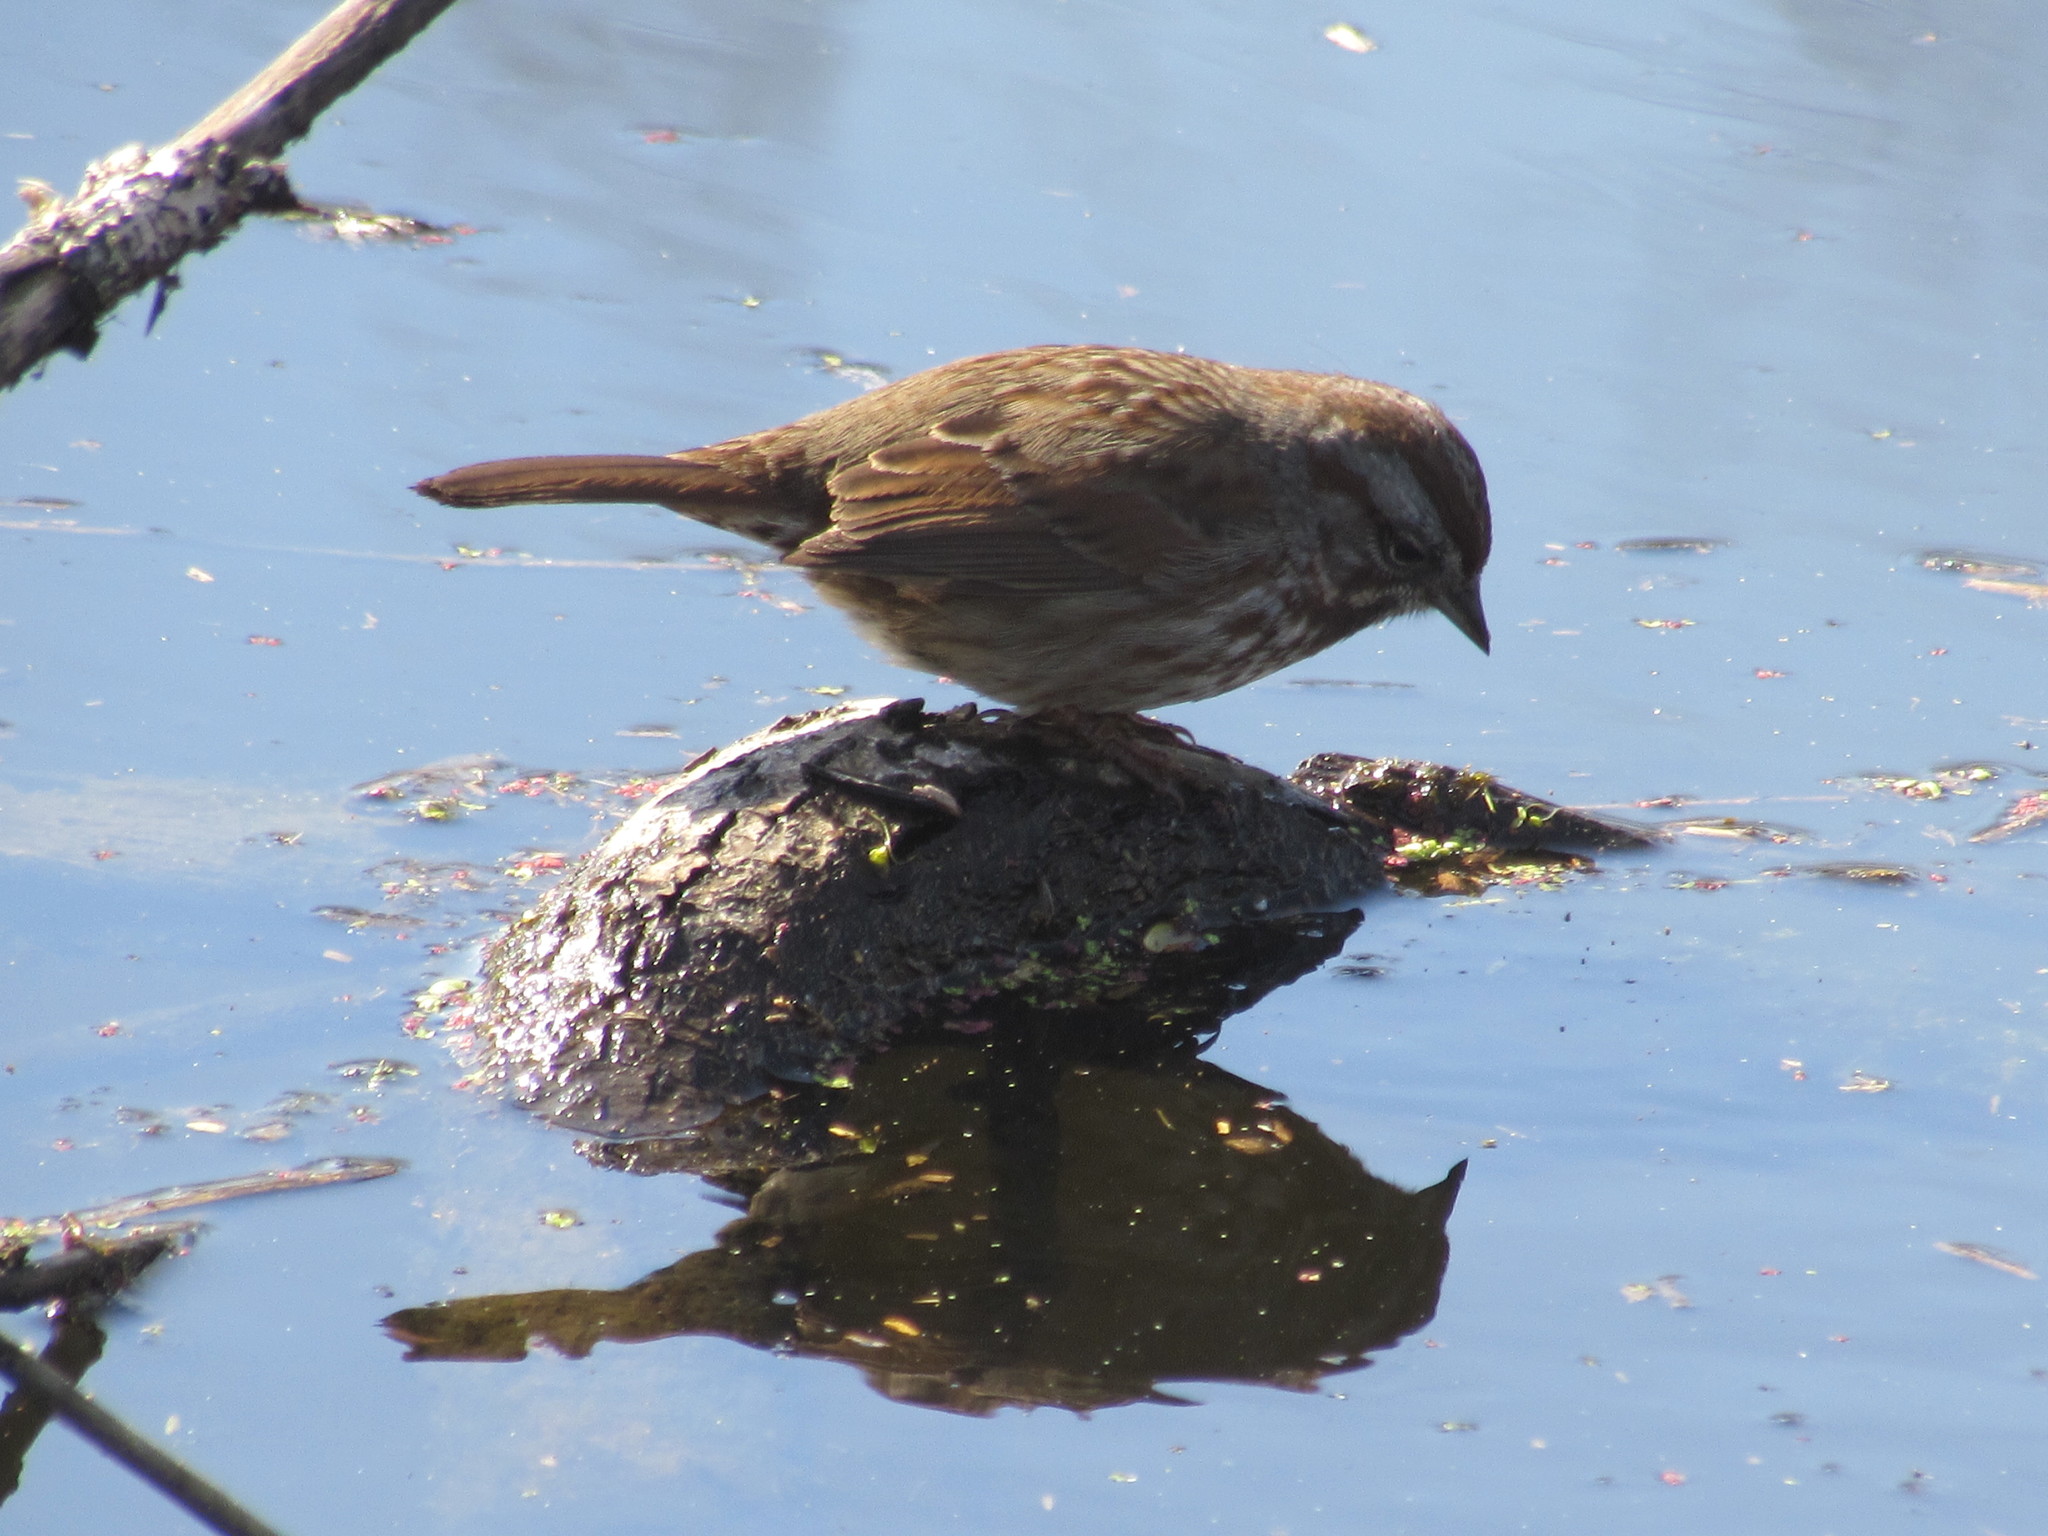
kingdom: Animalia
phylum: Chordata
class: Aves
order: Passeriformes
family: Passerellidae
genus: Melospiza
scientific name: Melospiza melodia
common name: Song sparrow
